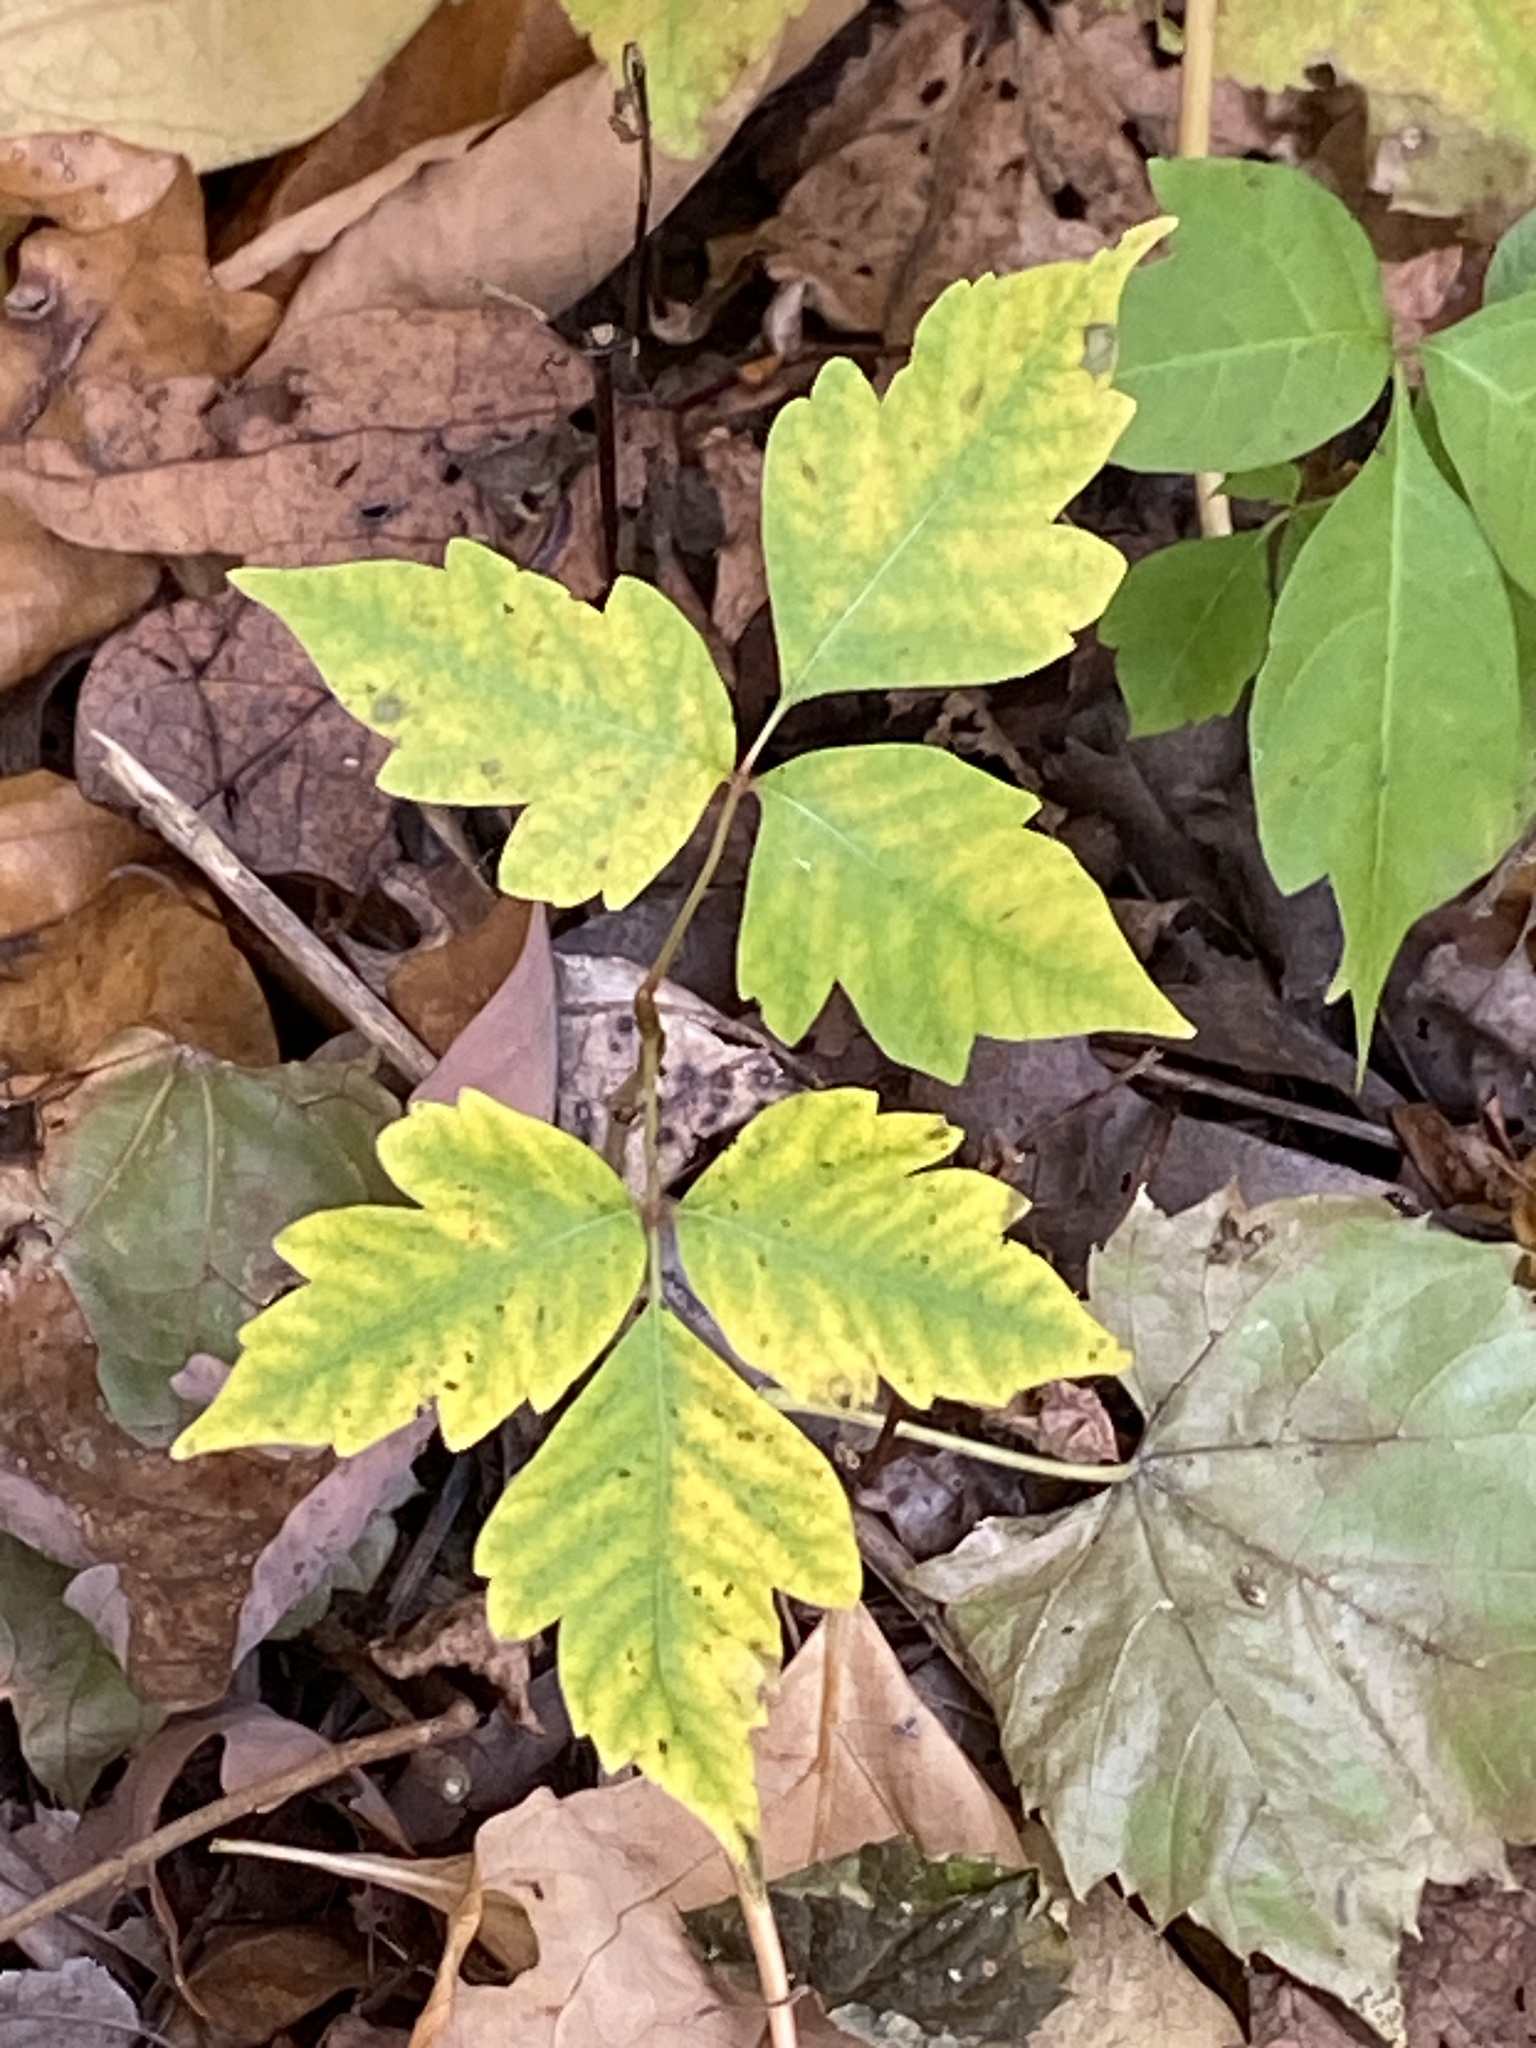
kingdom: Plantae
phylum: Tracheophyta
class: Magnoliopsida
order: Sapindales
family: Anacardiaceae
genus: Toxicodendron
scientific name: Toxicodendron radicans
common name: Poison ivy
